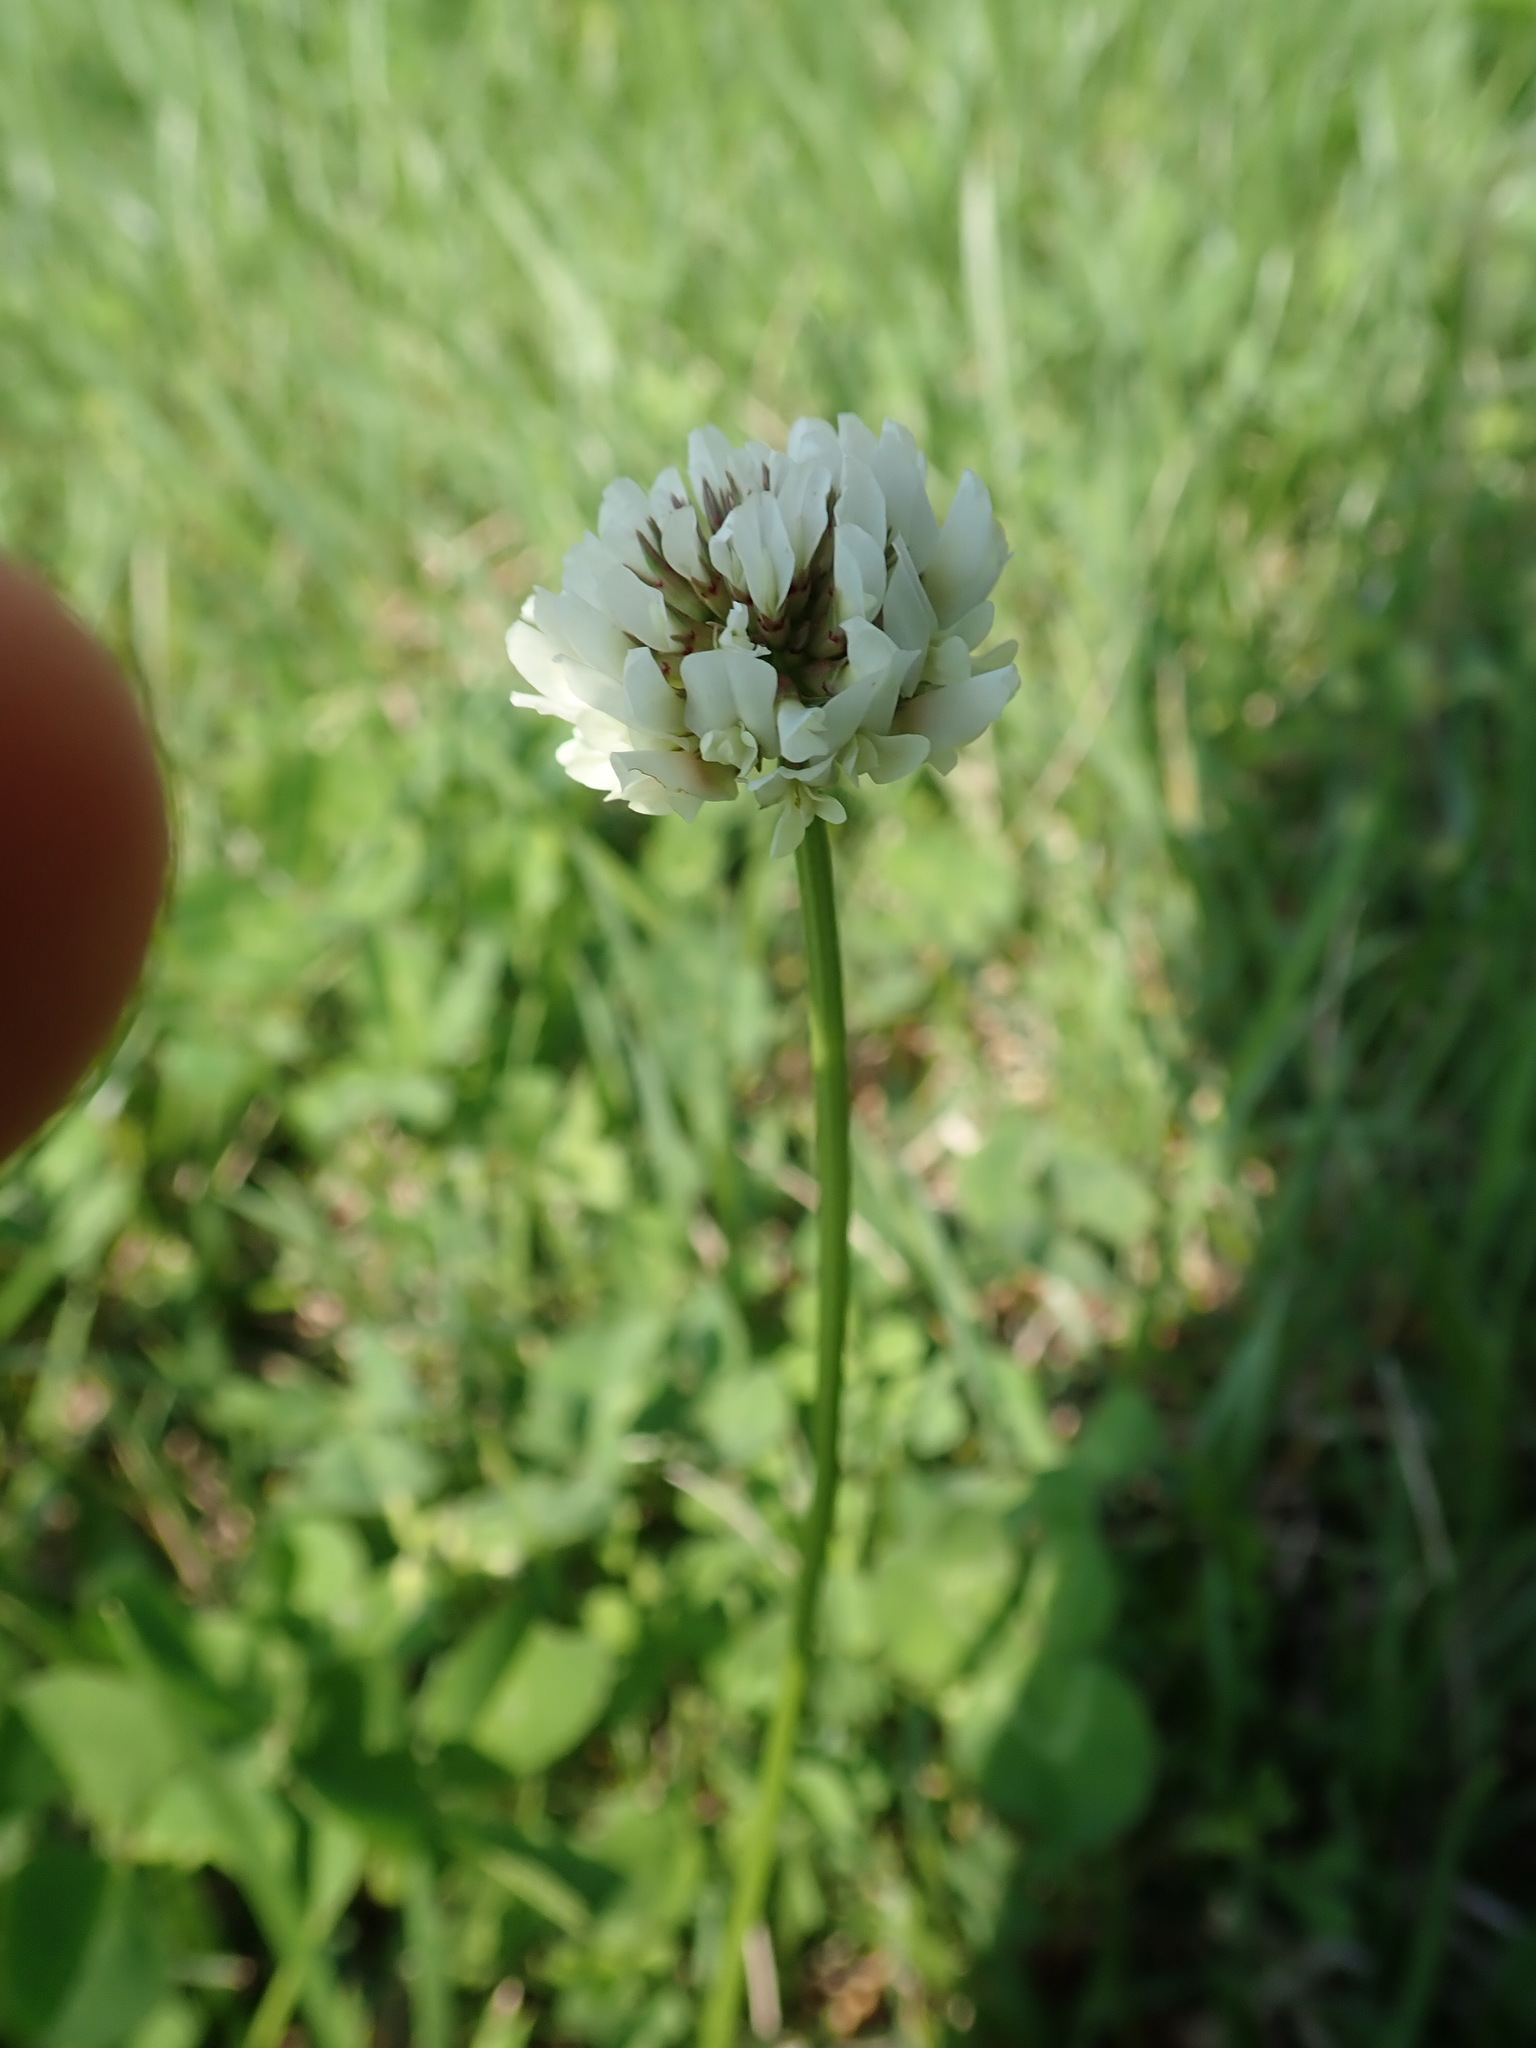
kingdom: Plantae
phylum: Tracheophyta
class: Magnoliopsida
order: Fabales
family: Fabaceae
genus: Trifolium
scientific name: Trifolium repens
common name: White clover
